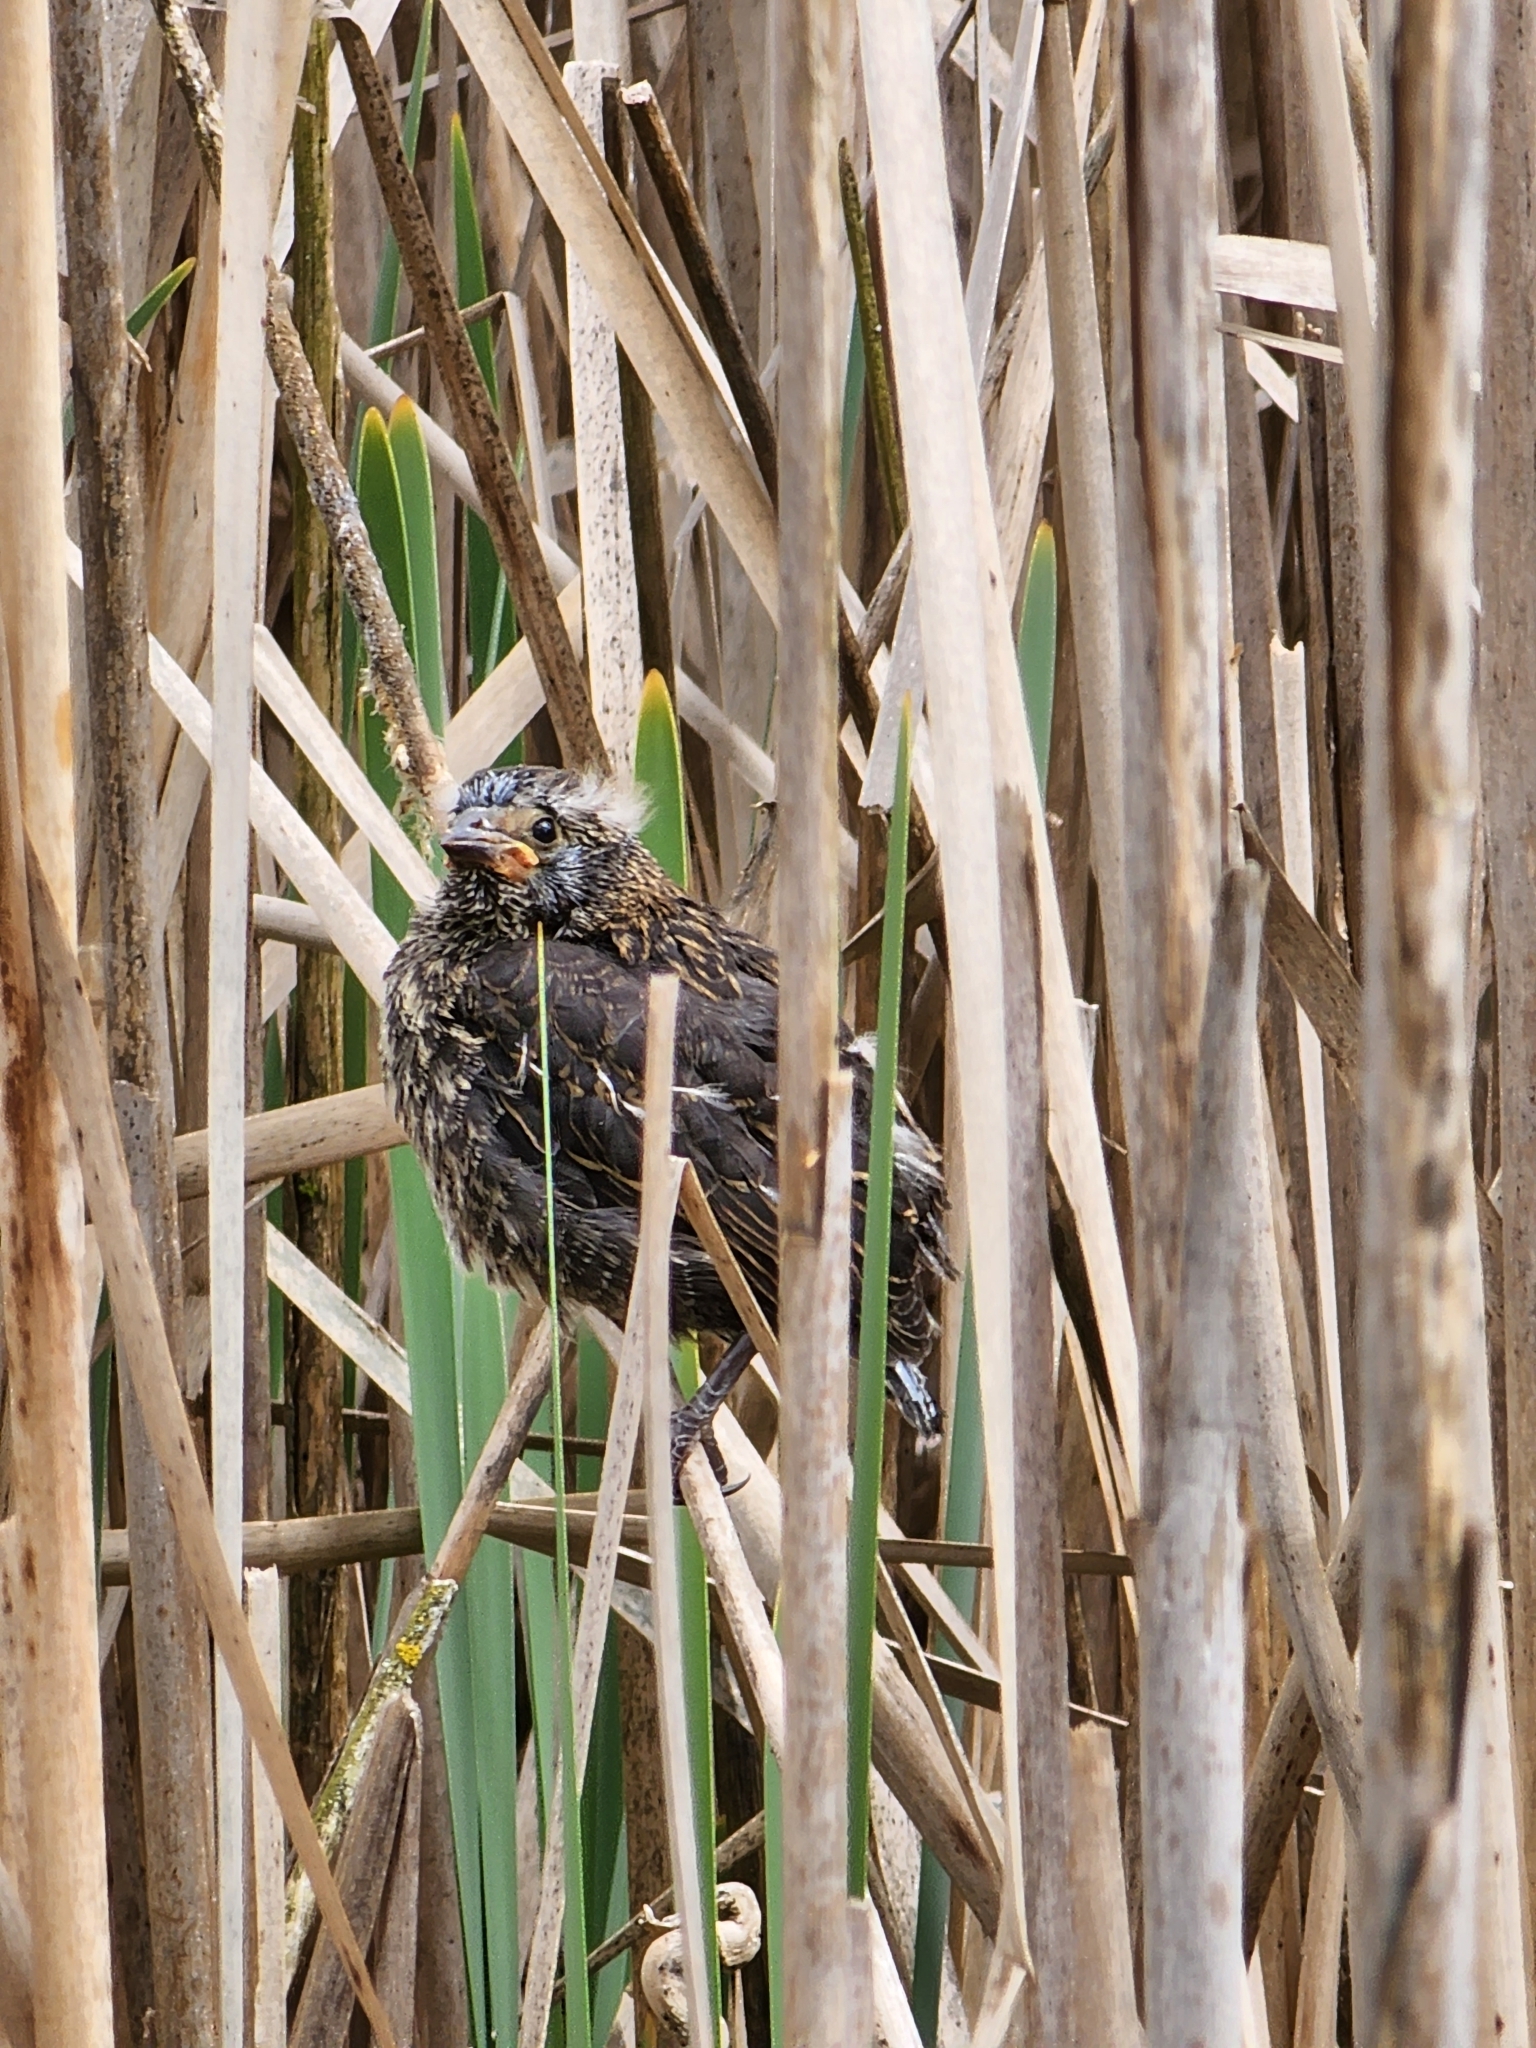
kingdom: Animalia
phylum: Chordata
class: Aves
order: Passeriformes
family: Icteridae
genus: Agelaius
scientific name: Agelaius phoeniceus
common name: Red-winged blackbird
